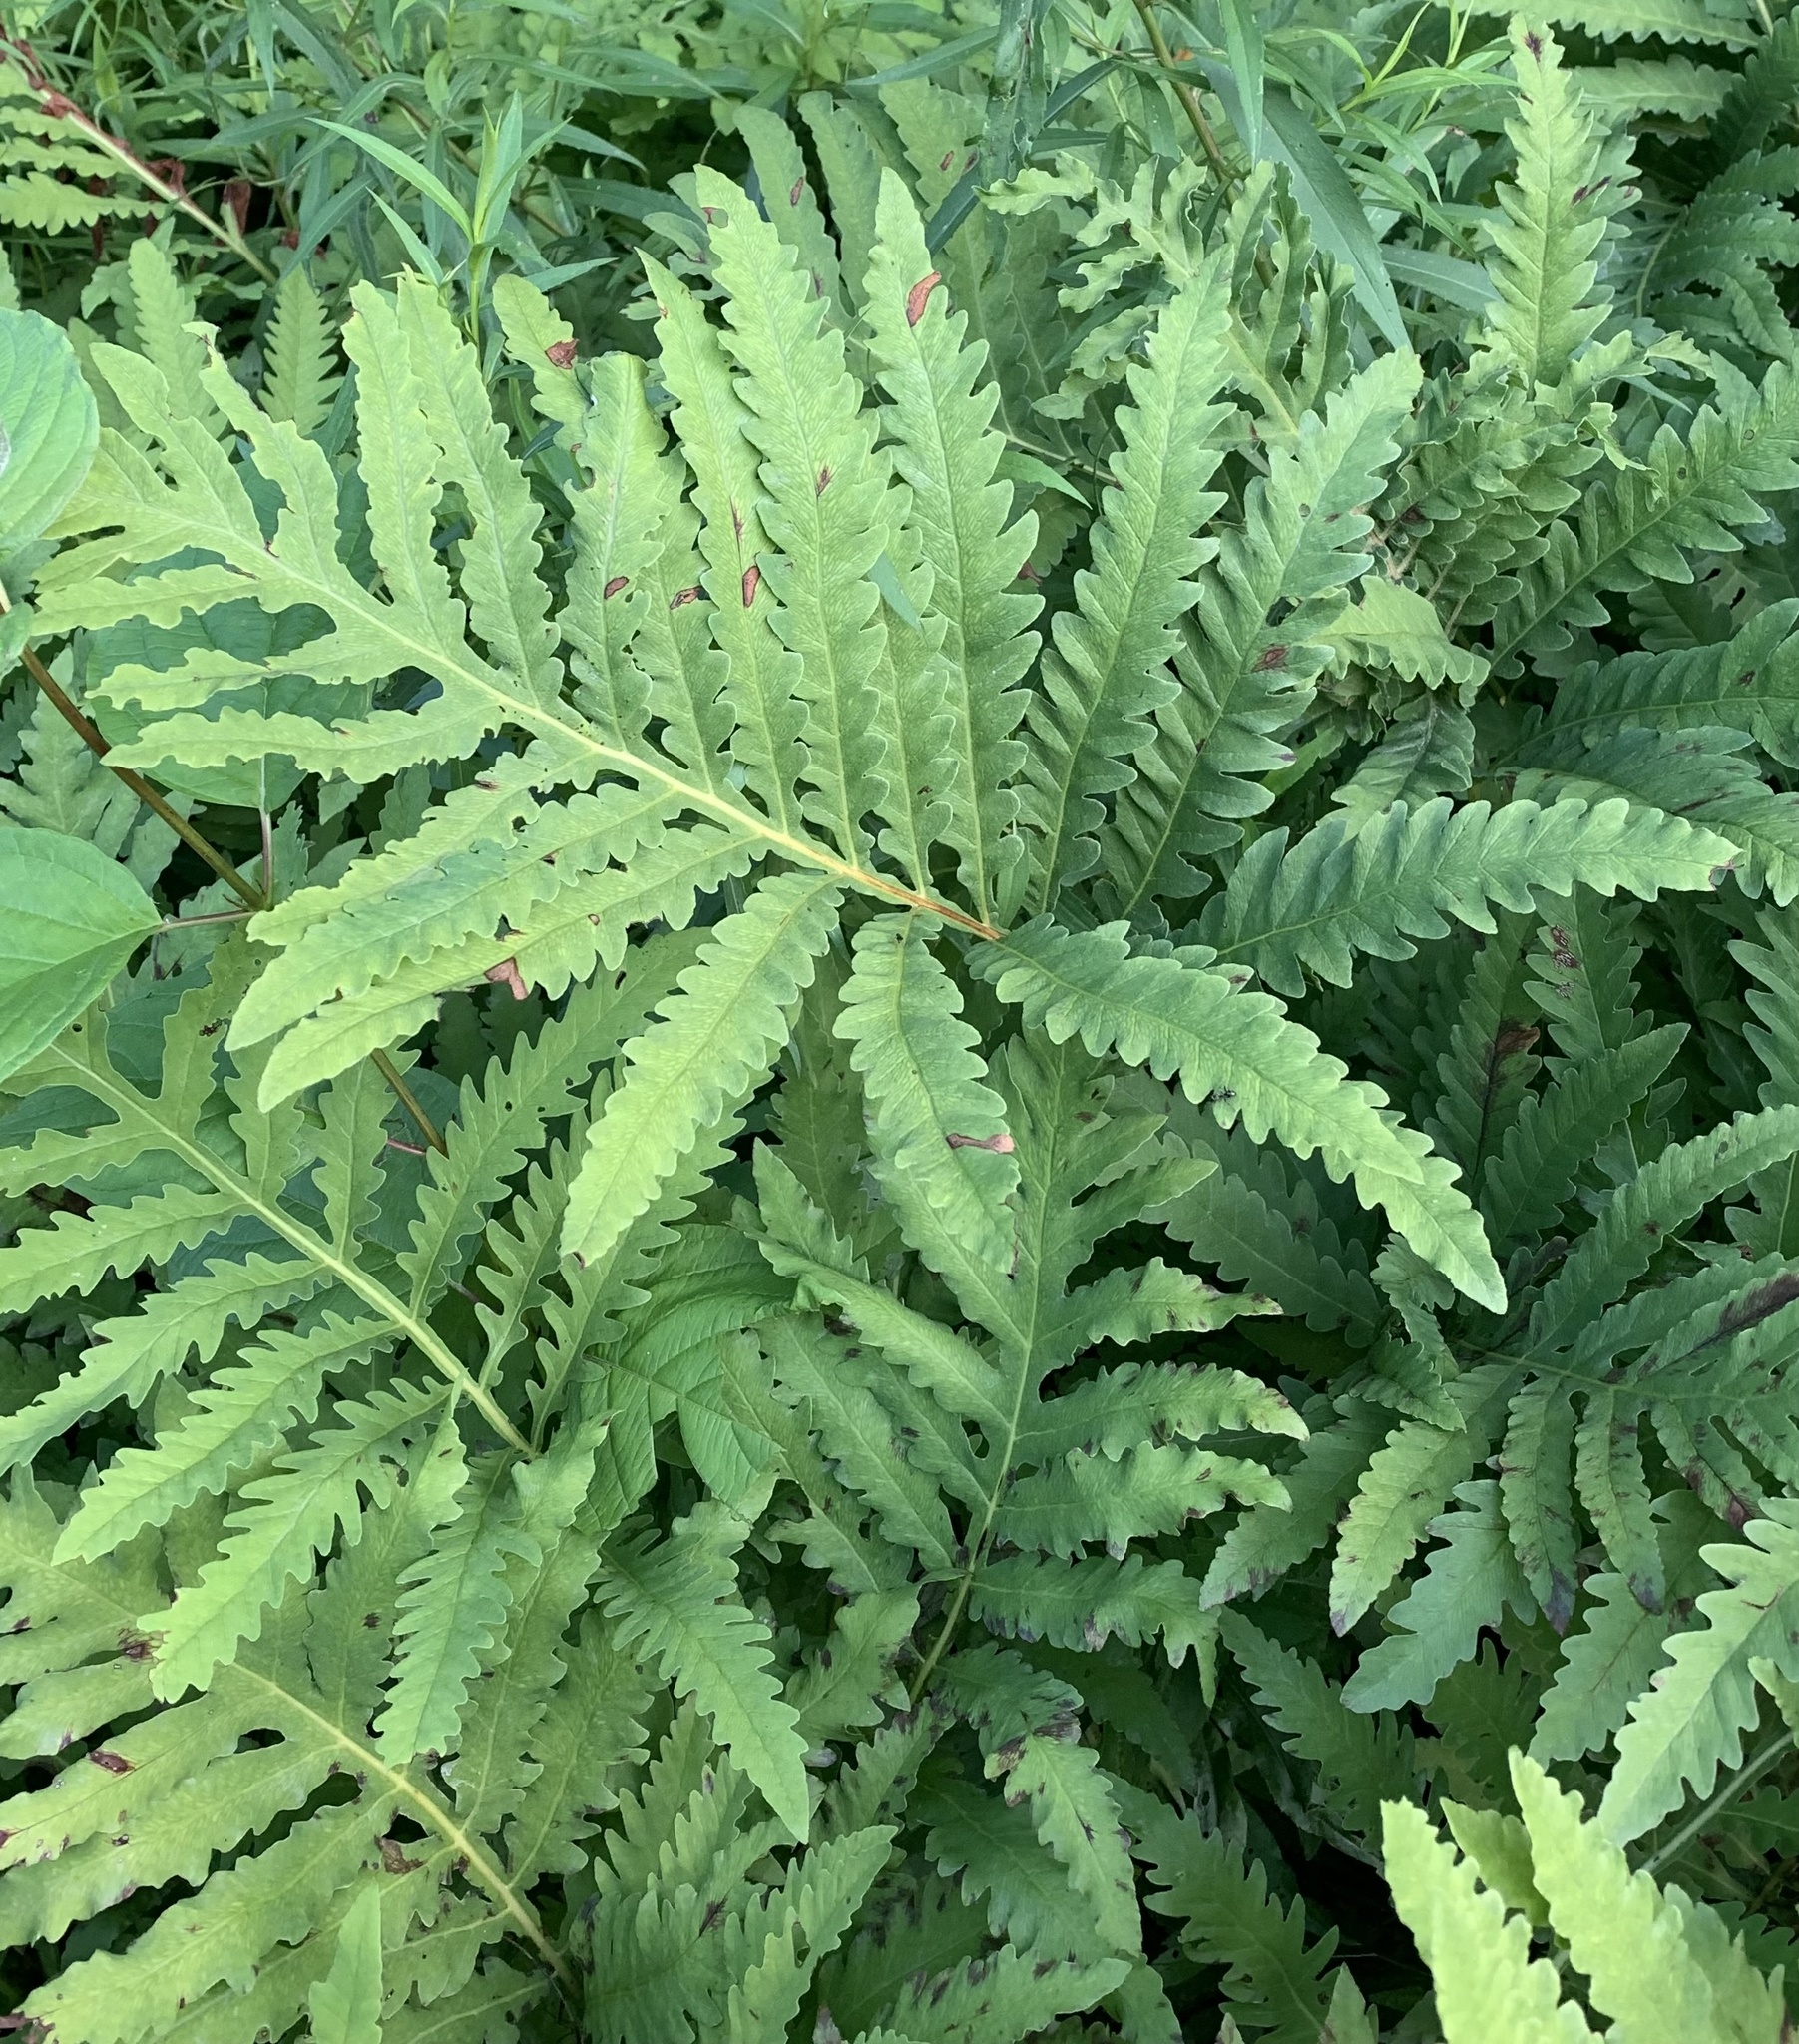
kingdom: Plantae
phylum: Tracheophyta
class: Polypodiopsida
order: Polypodiales
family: Onocleaceae
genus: Onoclea
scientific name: Onoclea sensibilis
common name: Sensitive fern
